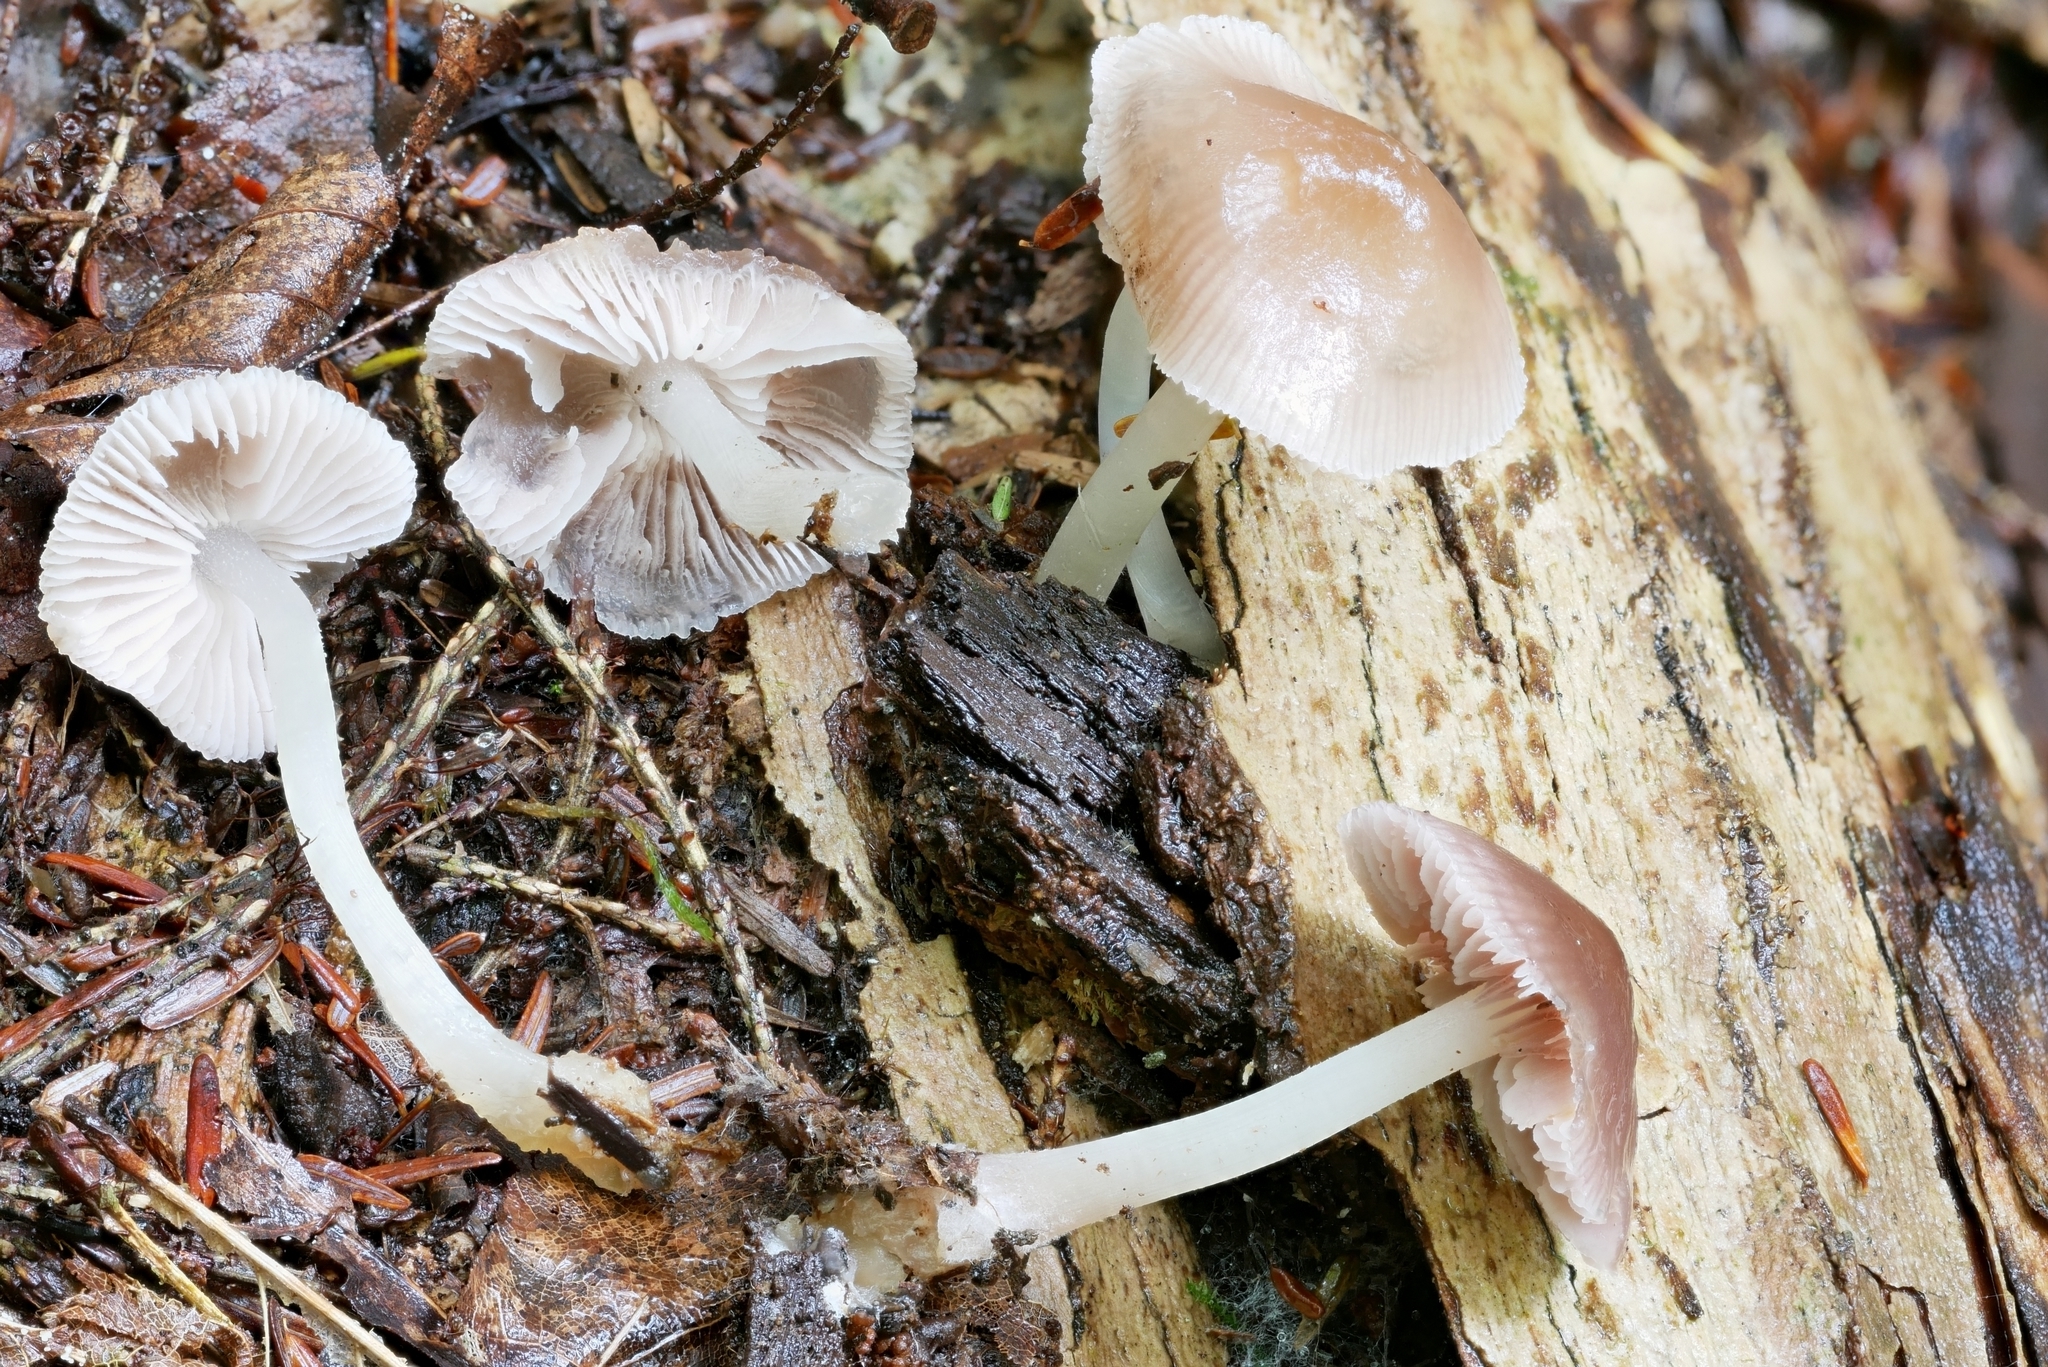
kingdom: Fungi
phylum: Basidiomycota
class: Agaricomycetes
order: Agaricales
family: Mycenaceae
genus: Mycena
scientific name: Mycena pura
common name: Lilac bonnet
